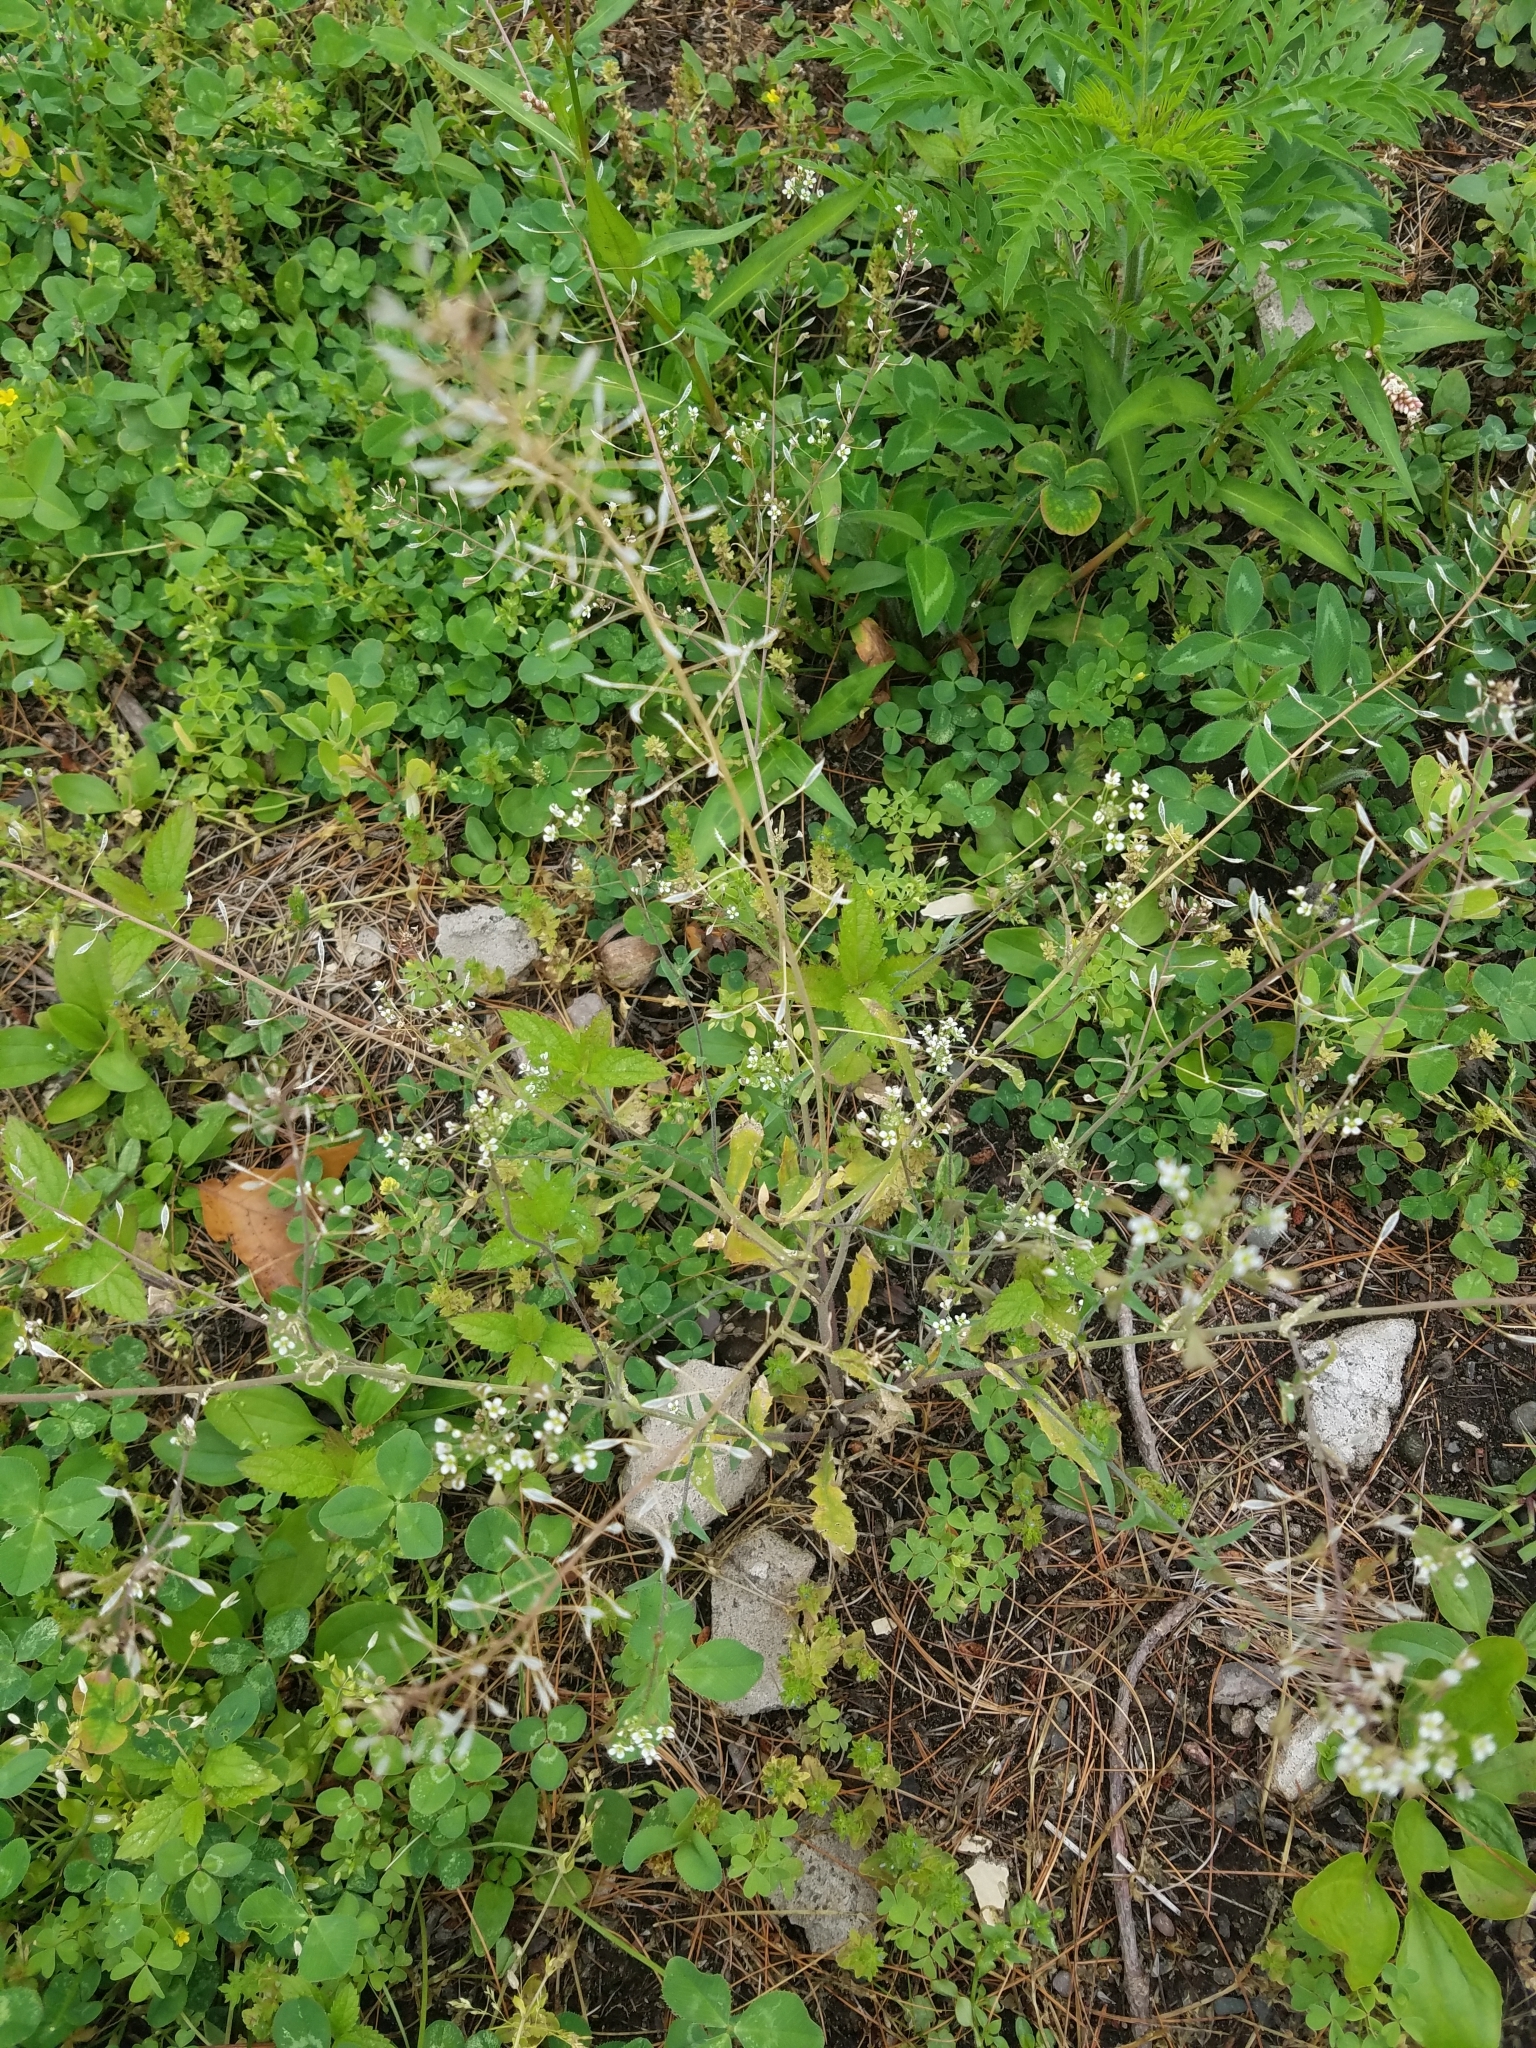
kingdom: Plantae
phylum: Tracheophyta
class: Magnoliopsida
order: Brassicales
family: Brassicaceae
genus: Capsella
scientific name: Capsella bursa-pastoris
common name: Shepherd's purse
